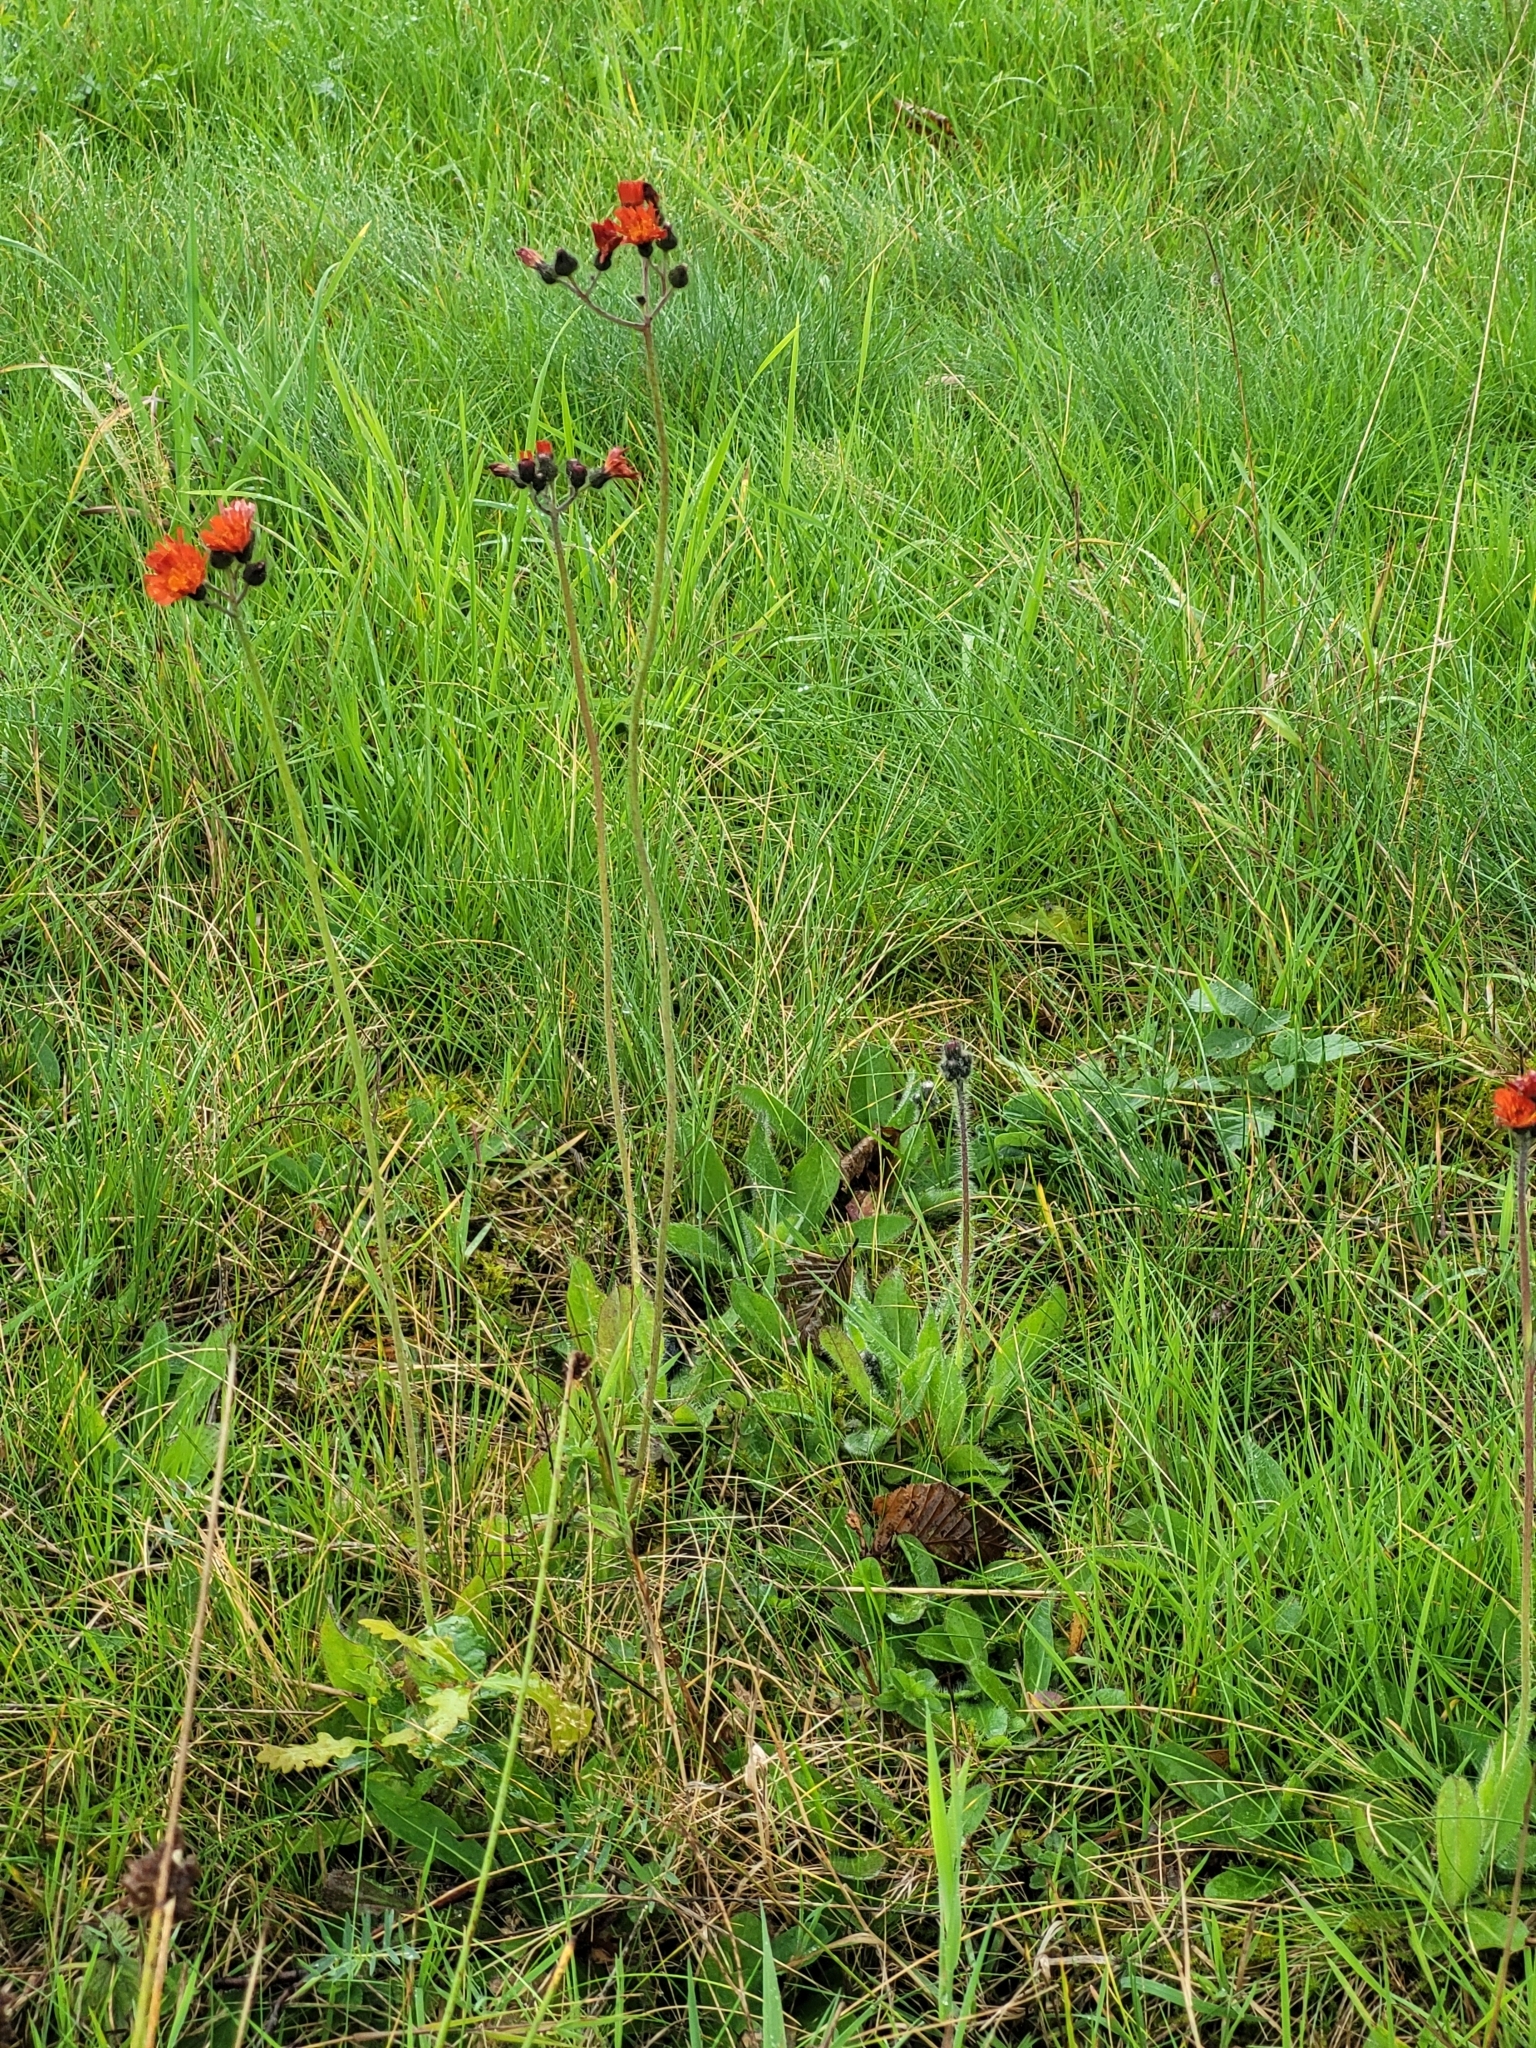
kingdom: Plantae
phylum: Tracheophyta
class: Magnoliopsida
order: Asterales
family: Asteraceae
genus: Pilosella
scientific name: Pilosella aurantiaca
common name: Fox-and-cubs
